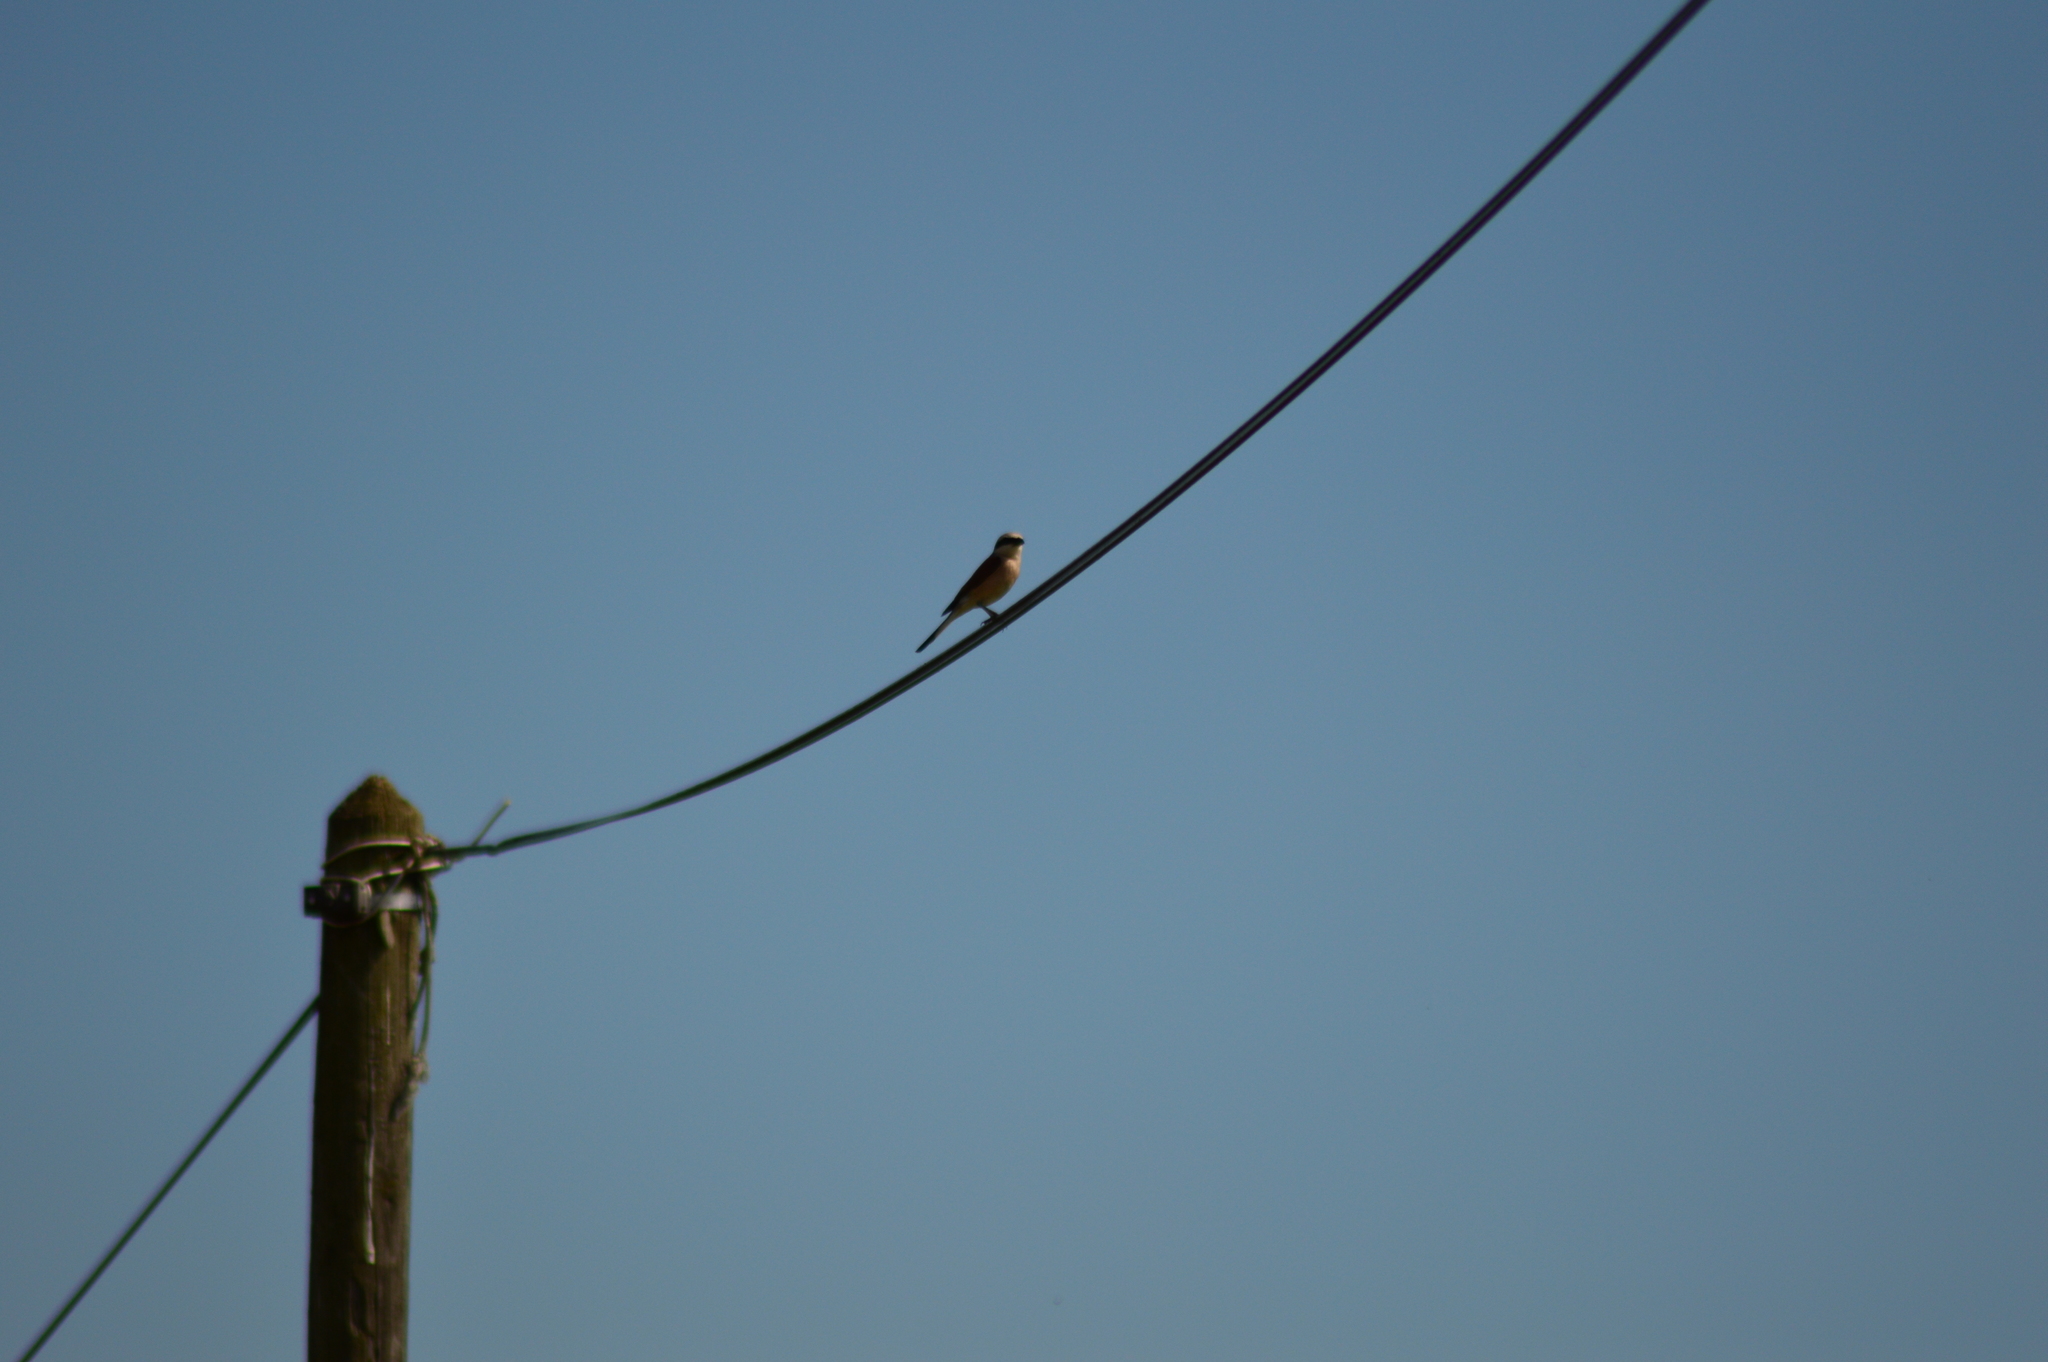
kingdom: Animalia
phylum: Chordata
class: Aves
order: Passeriformes
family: Laniidae
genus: Lanius
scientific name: Lanius collurio
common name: Red-backed shrike
